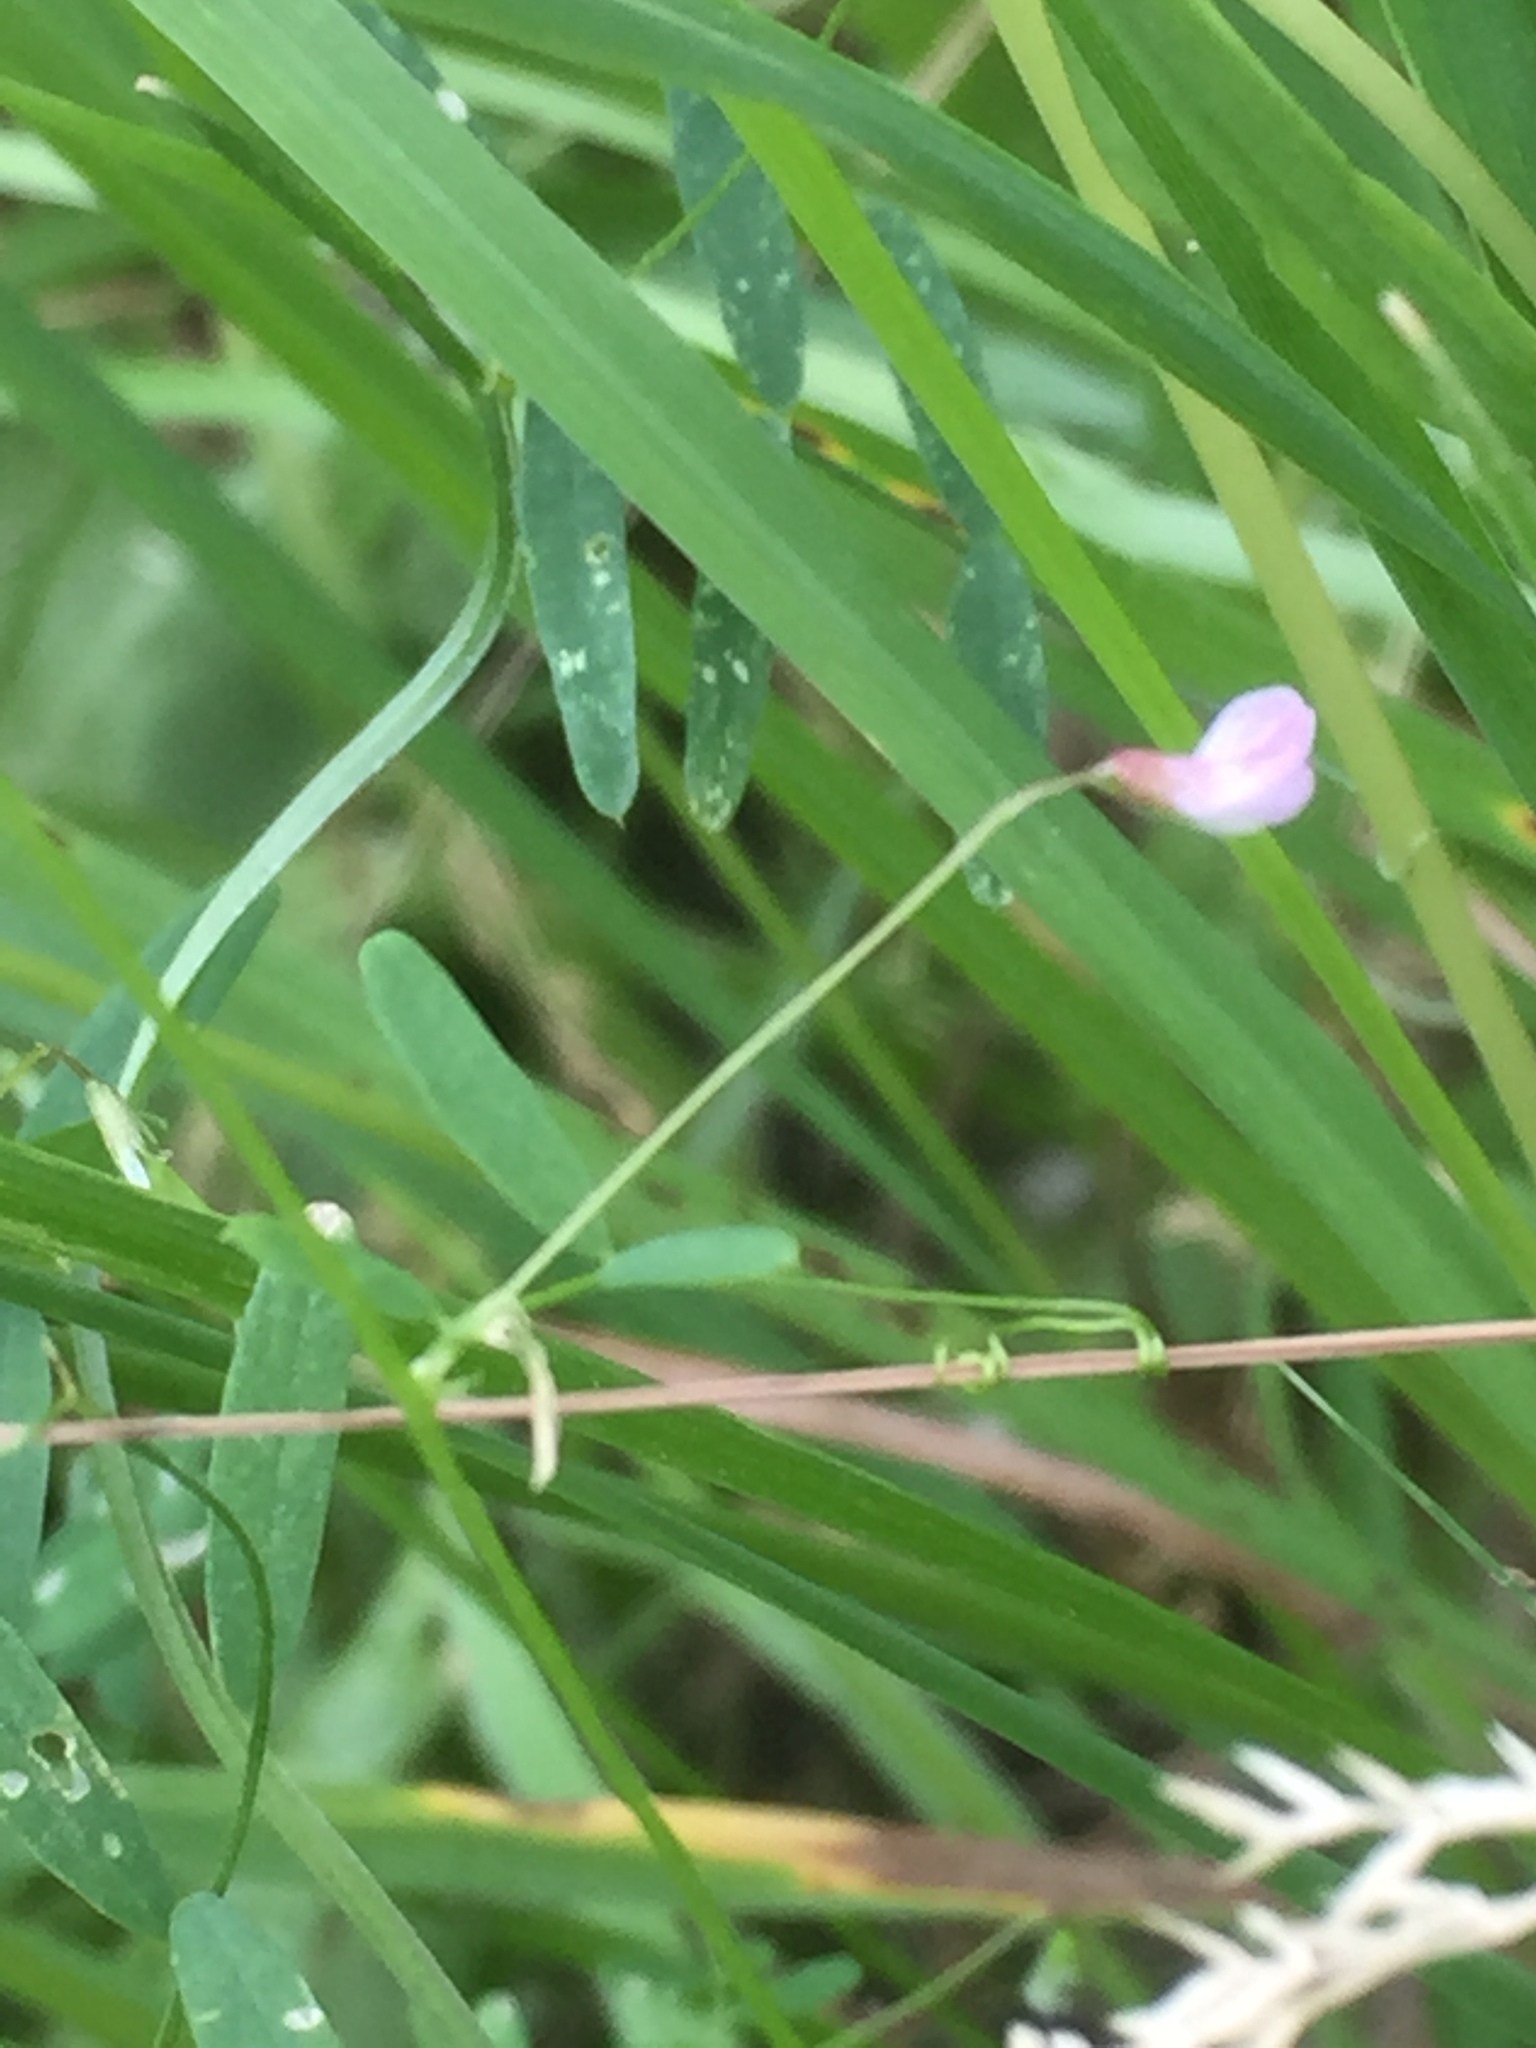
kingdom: Plantae
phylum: Tracheophyta
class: Magnoliopsida
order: Fabales
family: Fabaceae
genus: Vicia
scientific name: Vicia tetrasperma
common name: Smooth tare
